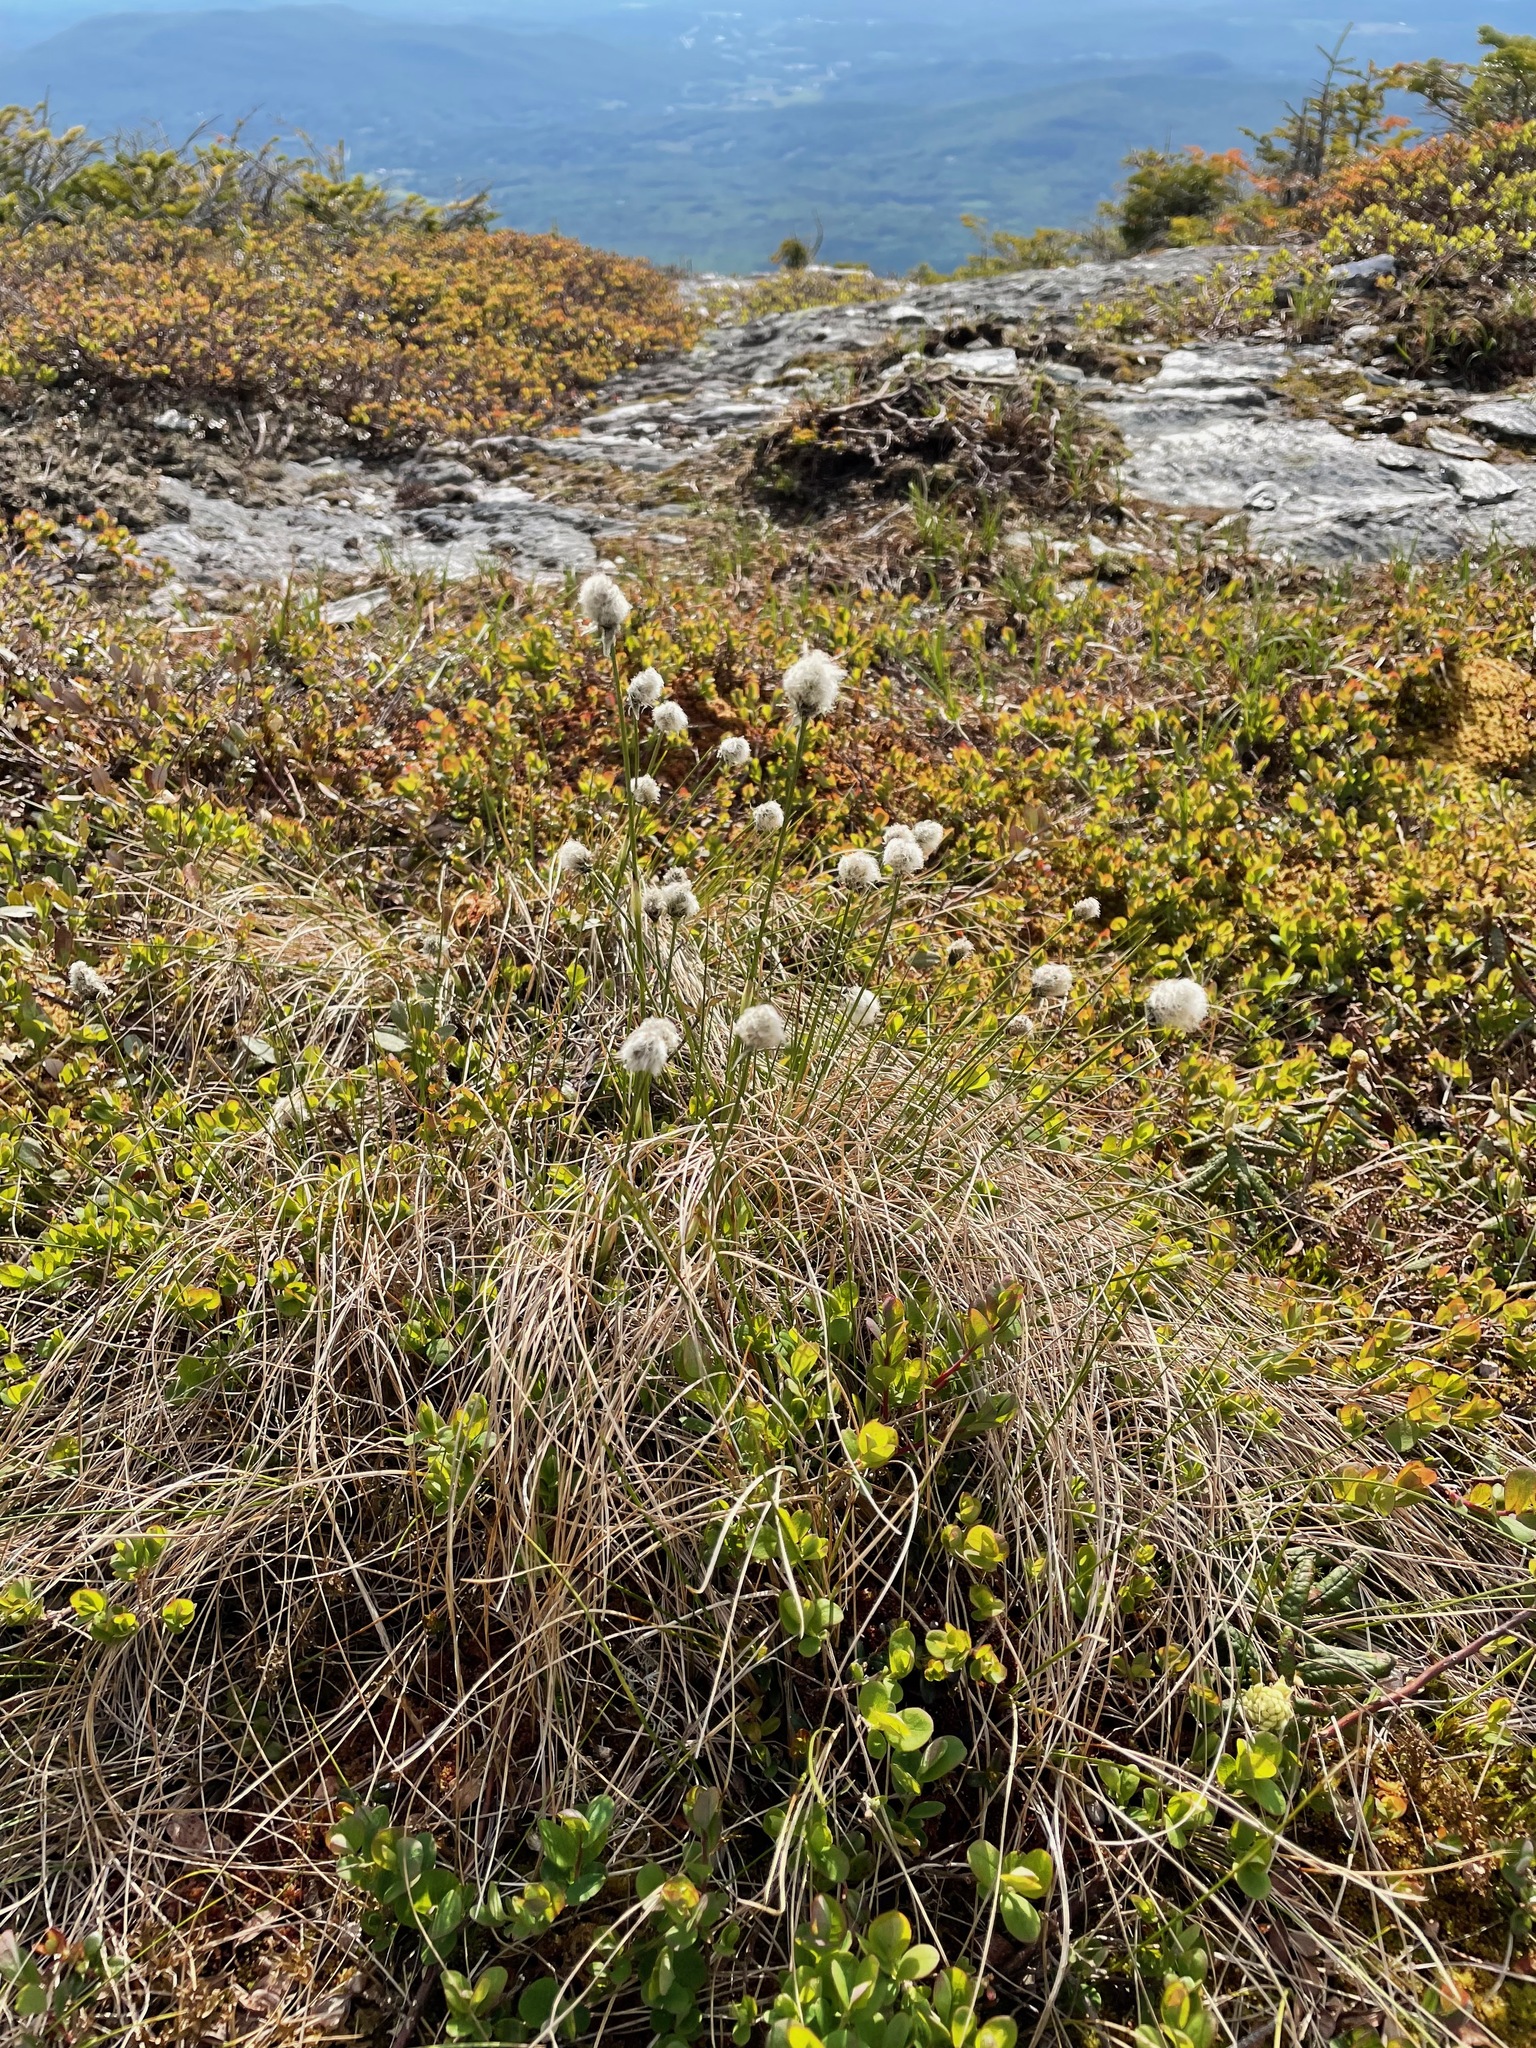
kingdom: Plantae
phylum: Tracheophyta
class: Liliopsida
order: Poales
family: Cyperaceae
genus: Eriophorum
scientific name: Eriophorum vaginatum
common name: Hare's-tail cottongrass
